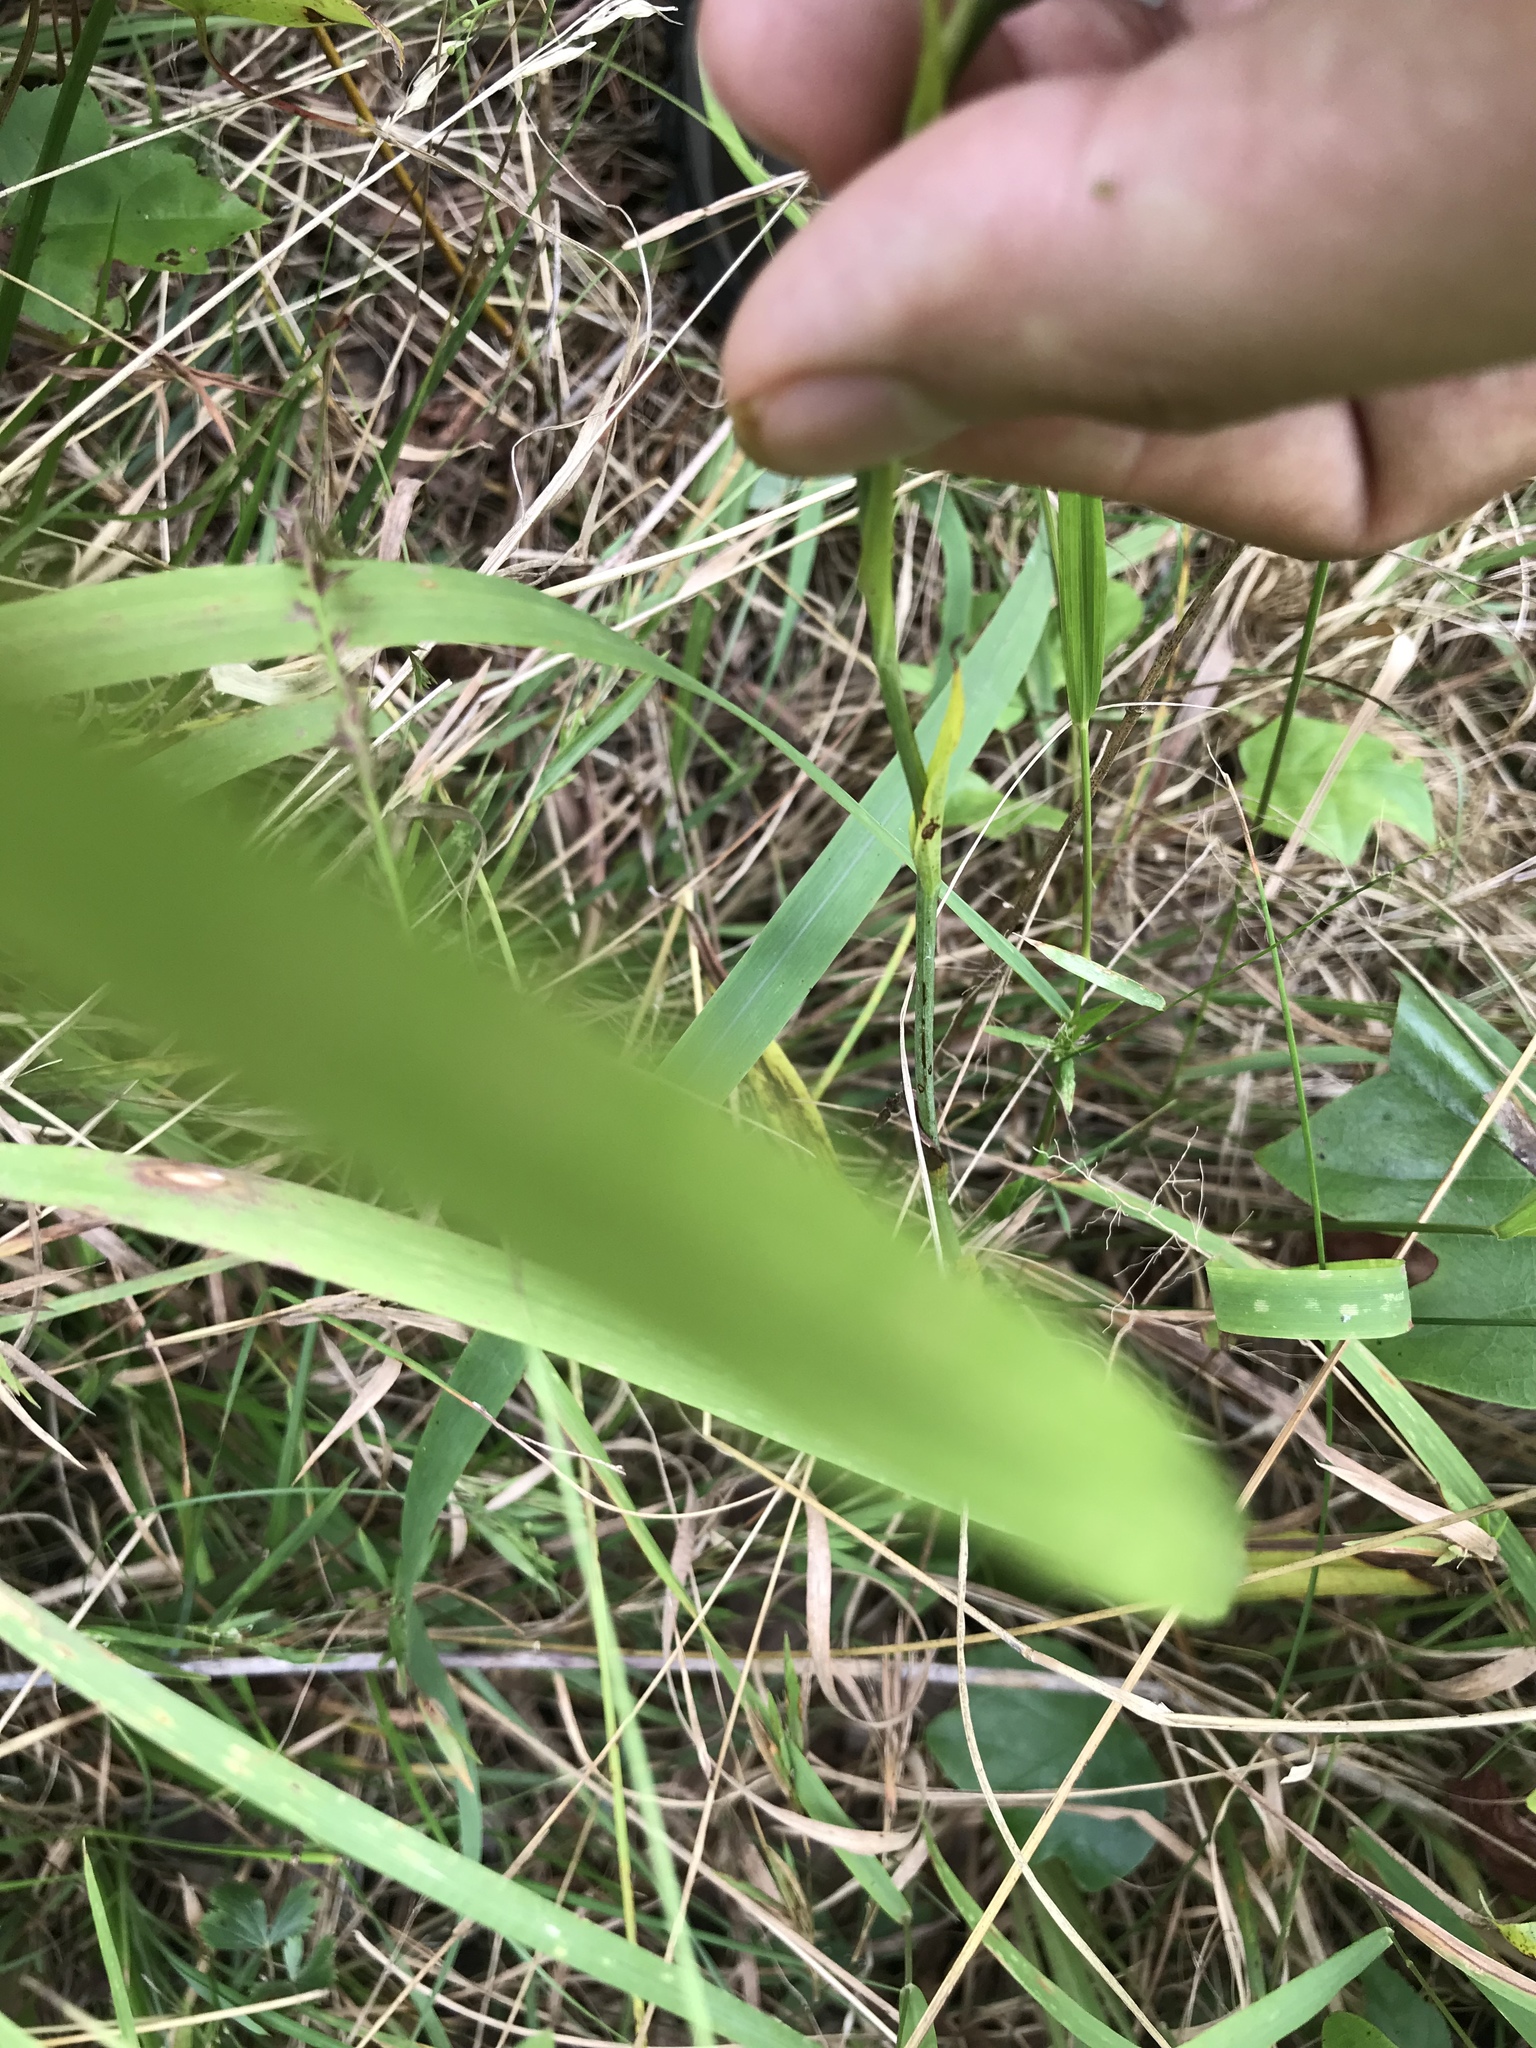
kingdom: Plantae
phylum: Tracheophyta
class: Liliopsida
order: Asparagales
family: Orchidaceae
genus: Platanthera
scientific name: Platanthera ciliaris
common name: Yellow fringed orchid
